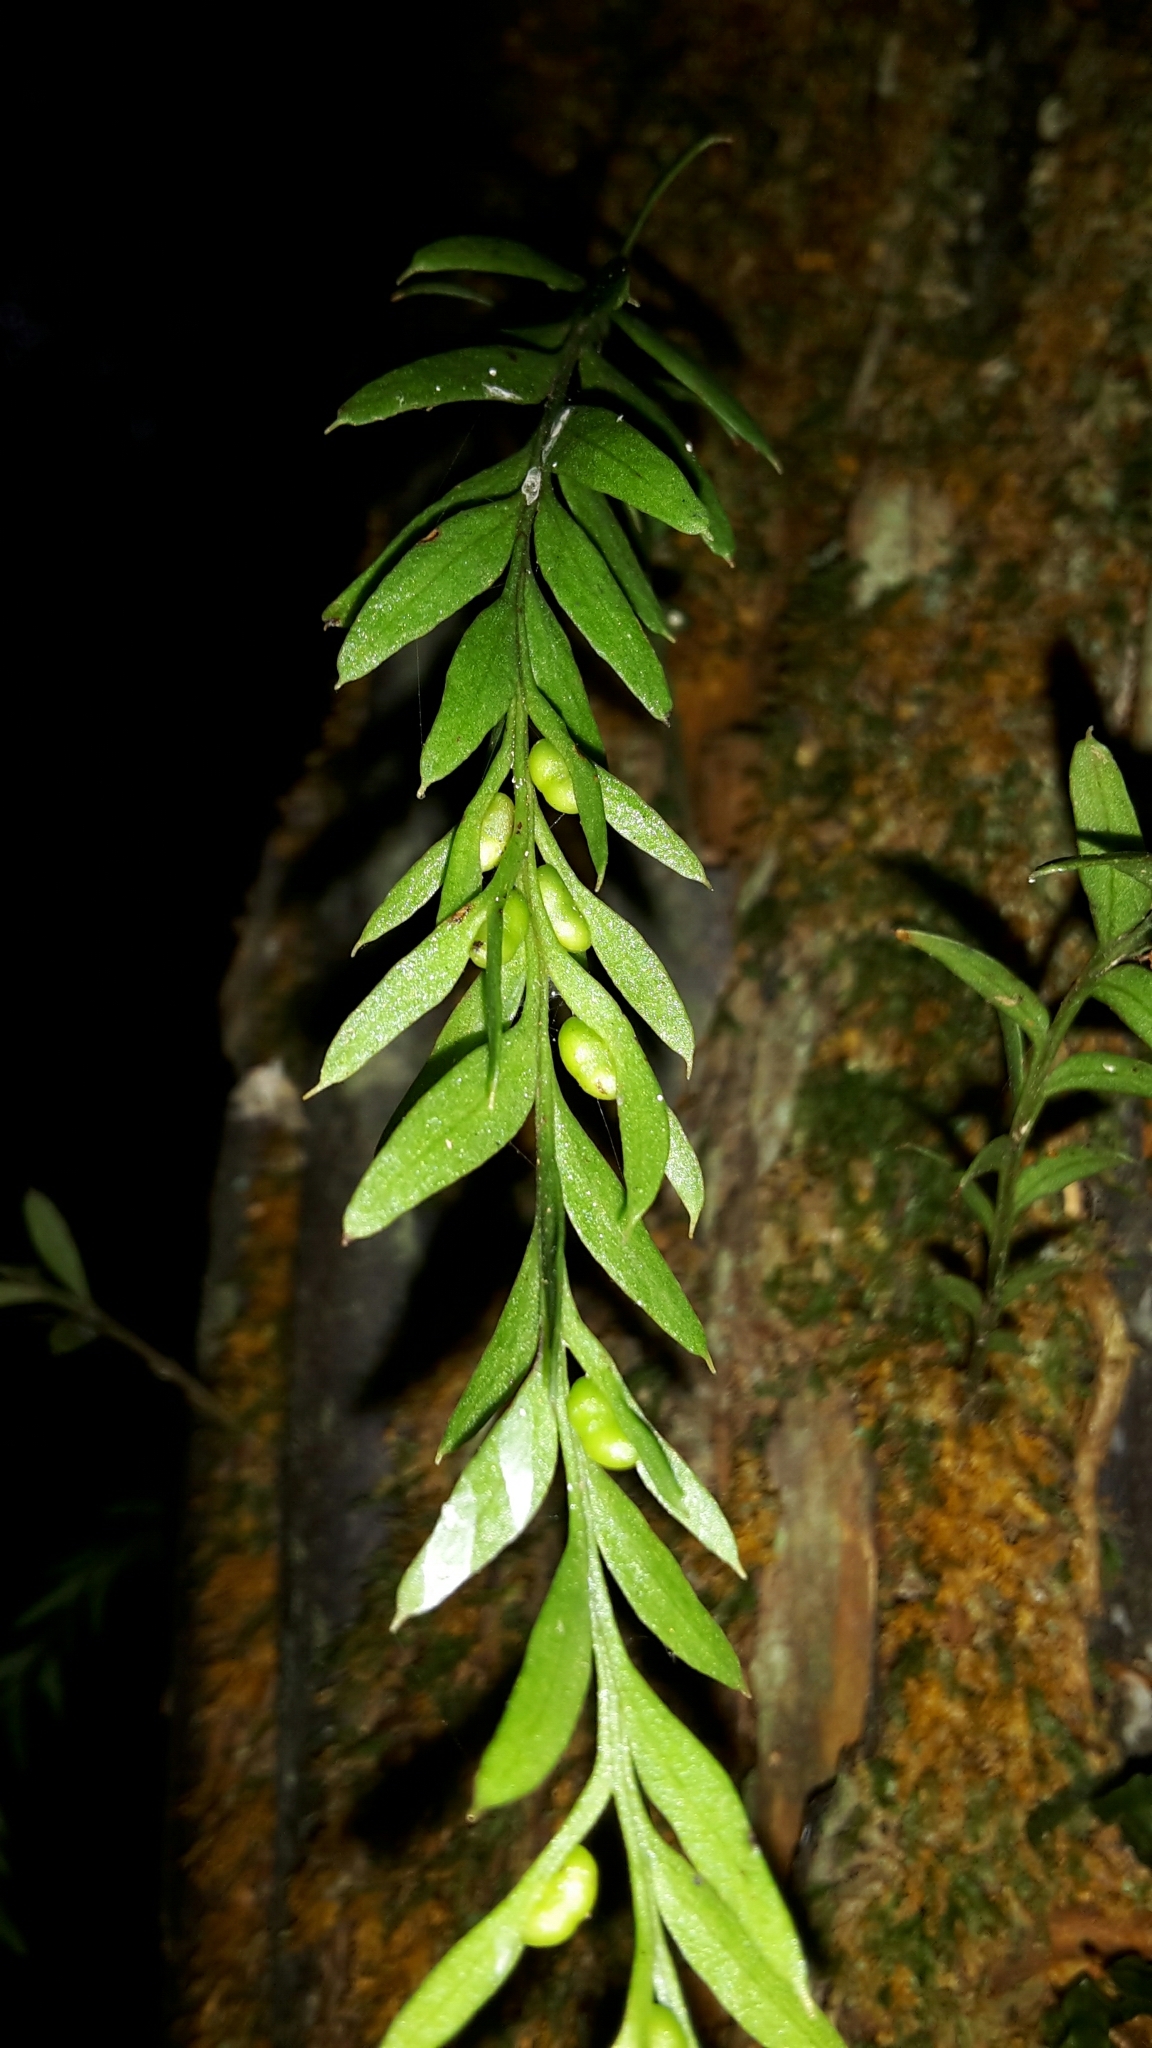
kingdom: Plantae
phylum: Tracheophyta
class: Polypodiopsida
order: Psilotales
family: Psilotaceae
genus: Tmesipteris
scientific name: Tmesipteris elongata
